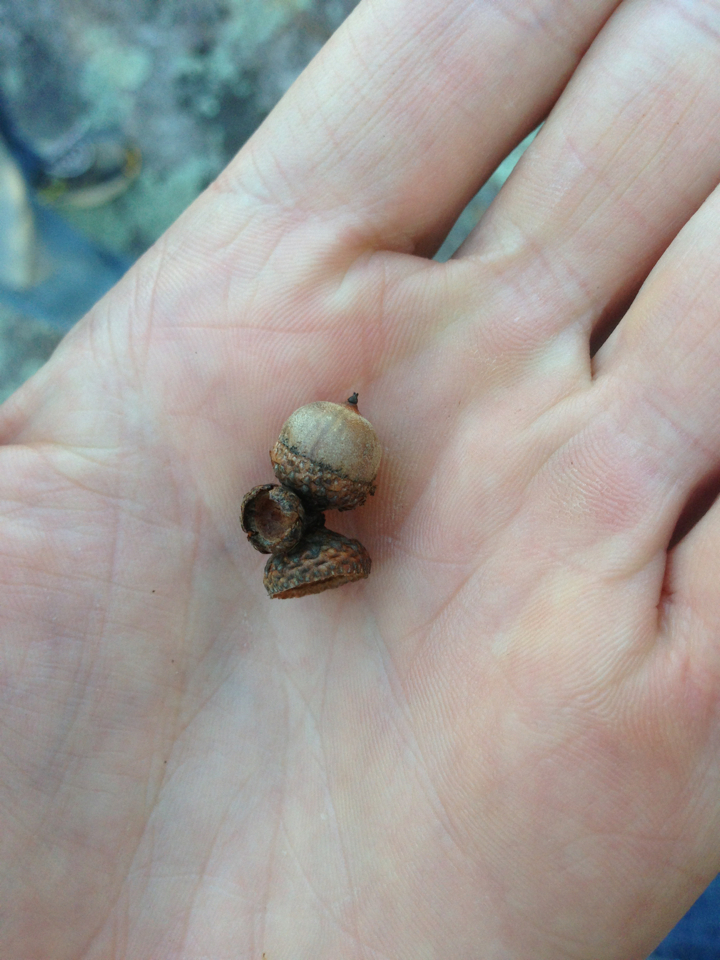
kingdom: Plantae
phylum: Tracheophyta
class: Magnoliopsida
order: Fagales
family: Fagaceae
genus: Quercus
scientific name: Quercus georgiana
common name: Georgia oak
